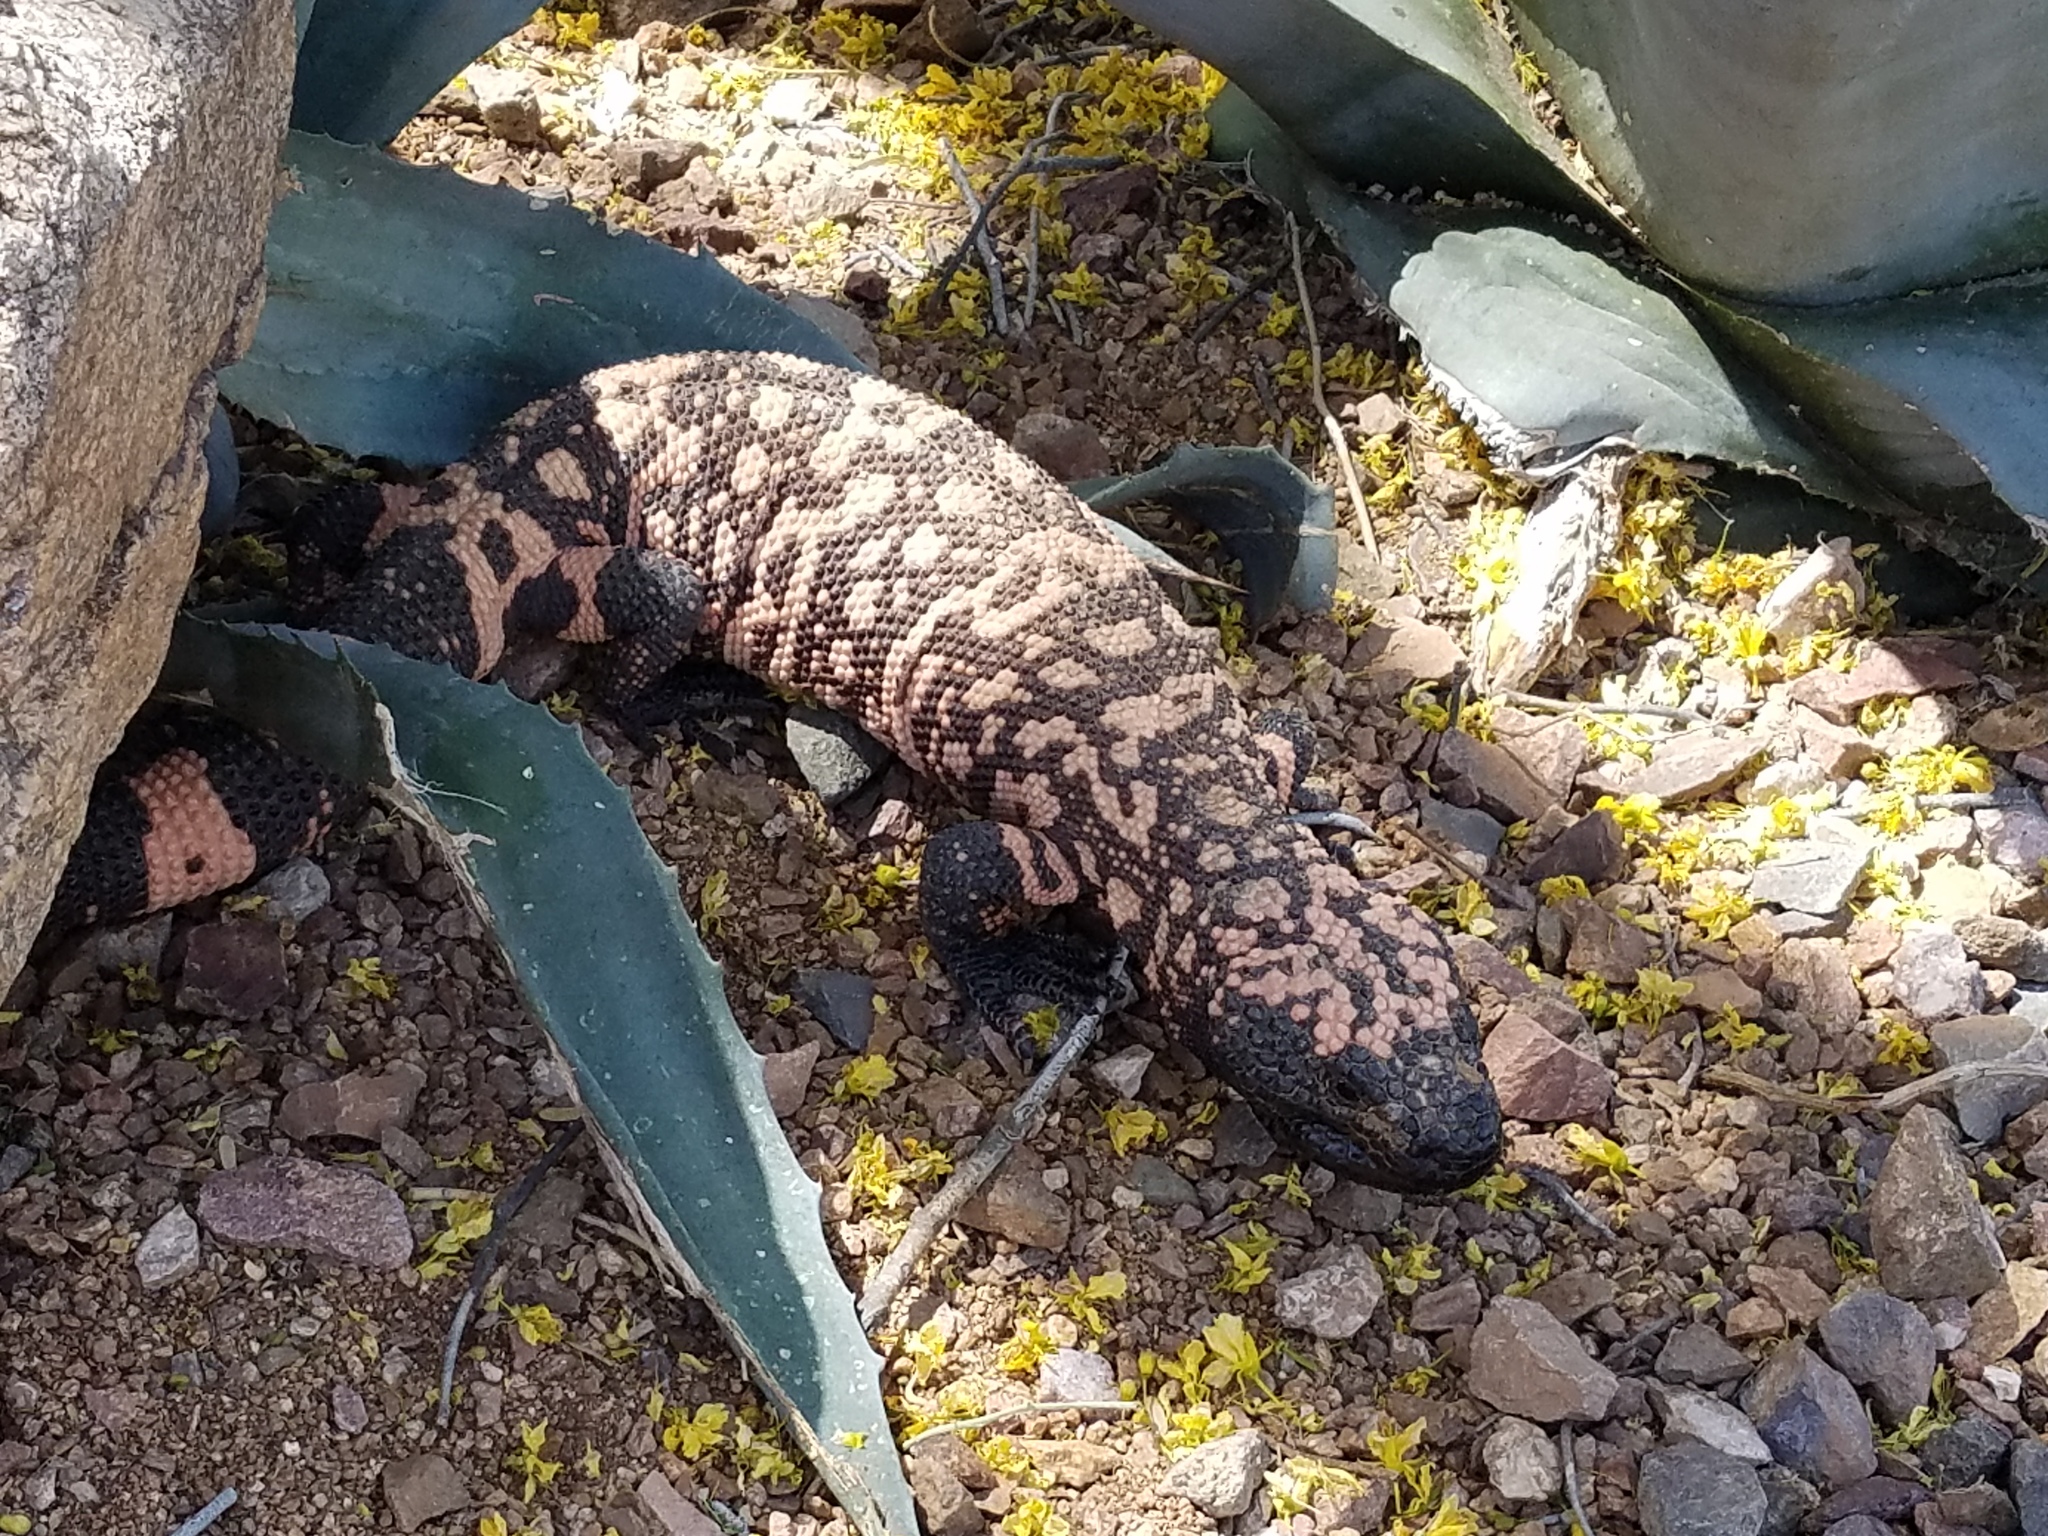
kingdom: Animalia
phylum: Chordata
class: Squamata
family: Helodermatidae
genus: Heloderma
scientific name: Heloderma suspectum
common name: Gila monster
